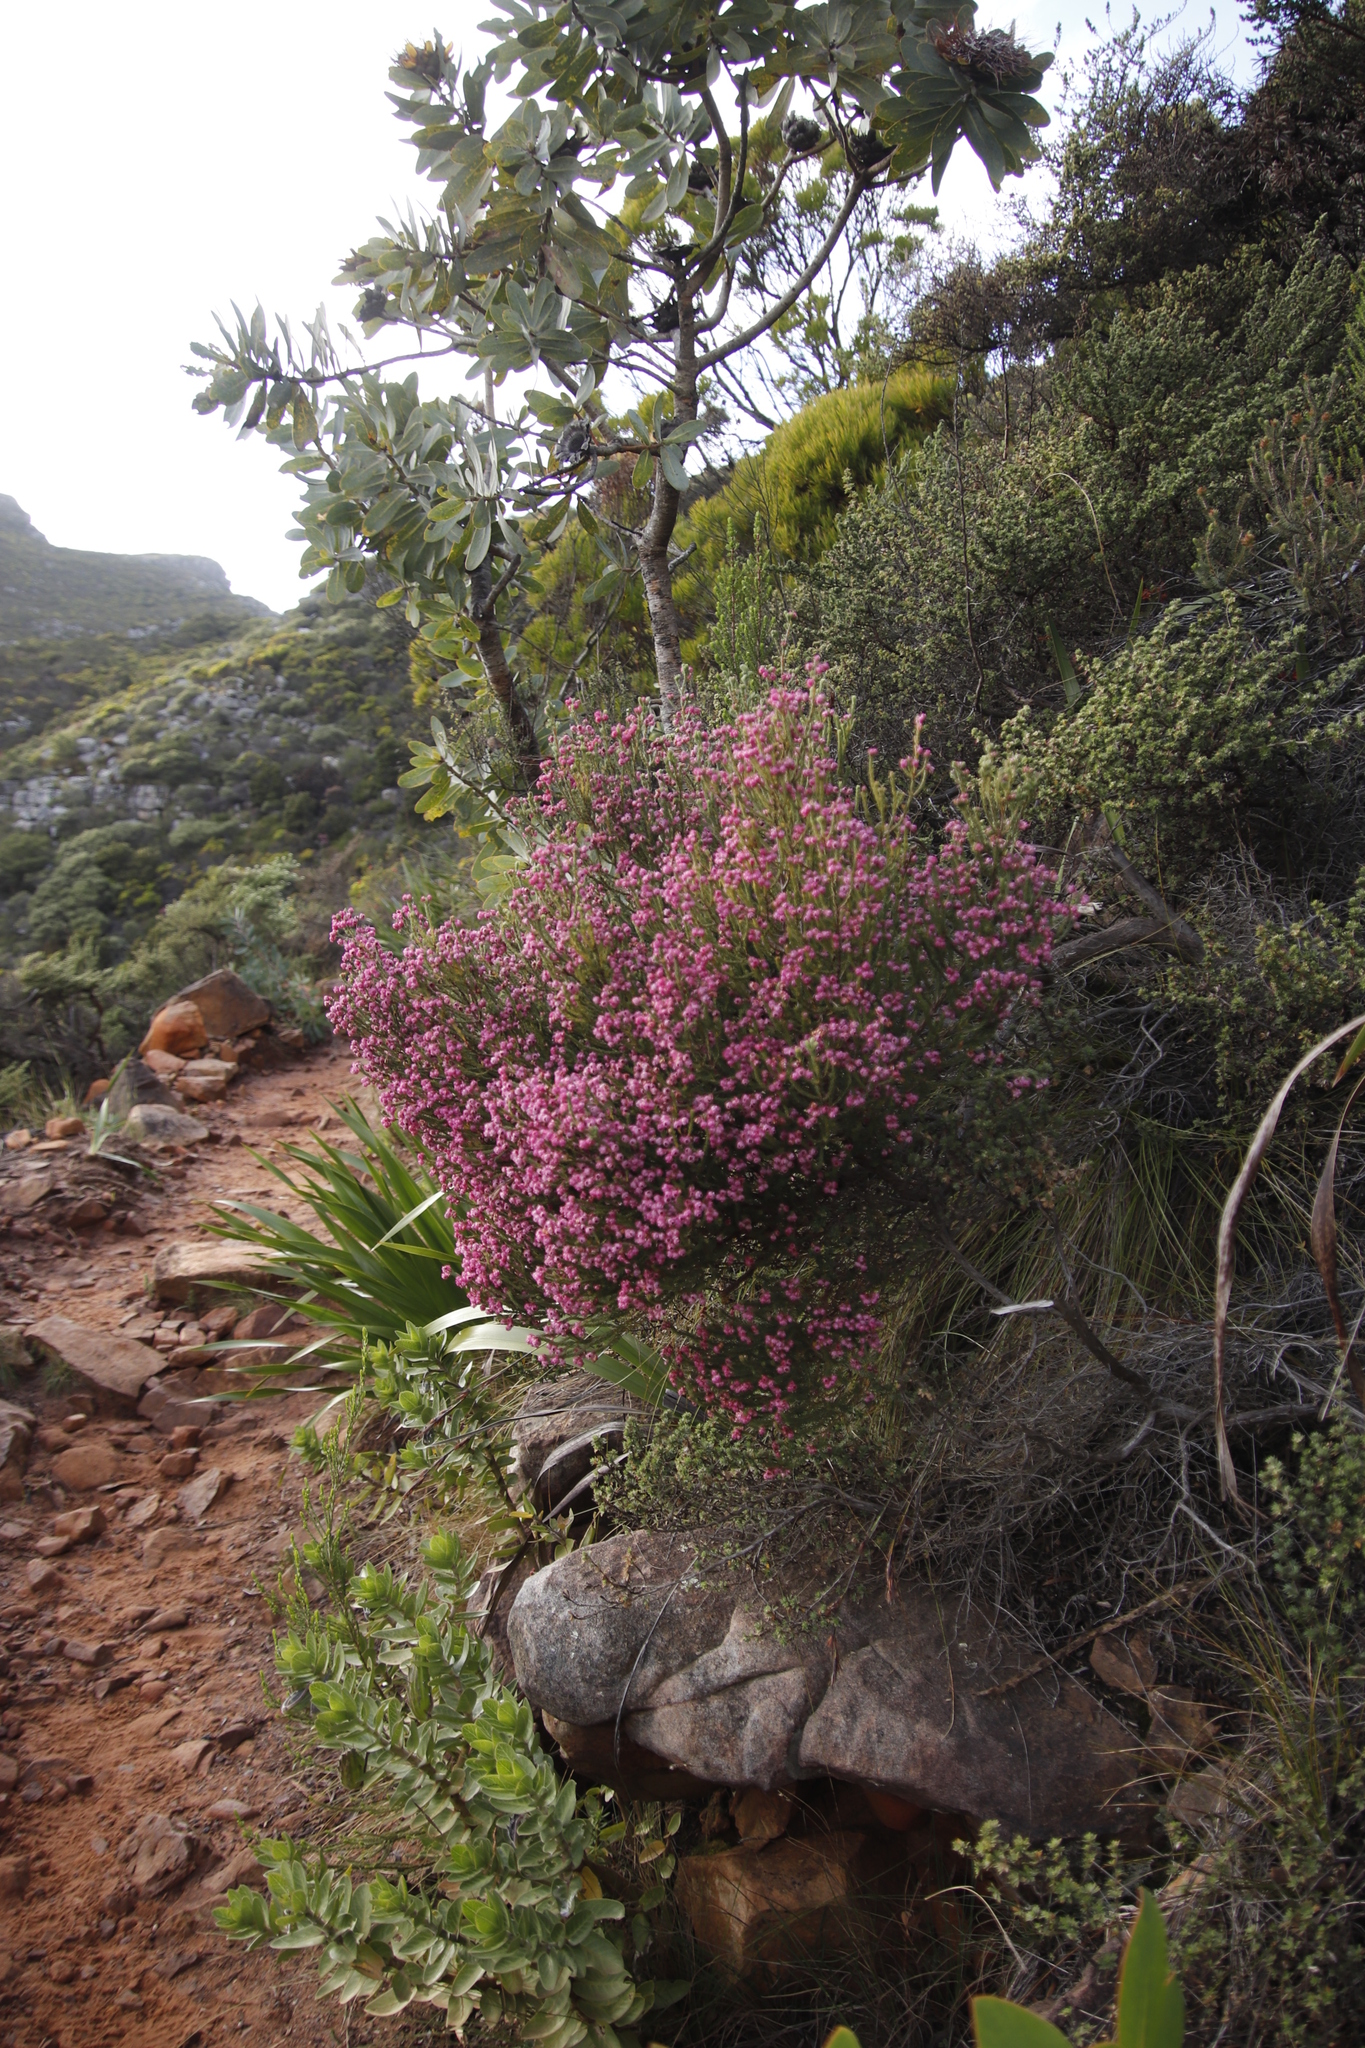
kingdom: Plantae
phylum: Tracheophyta
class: Magnoliopsida
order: Ericales
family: Ericaceae
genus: Erica
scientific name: Erica baccans
